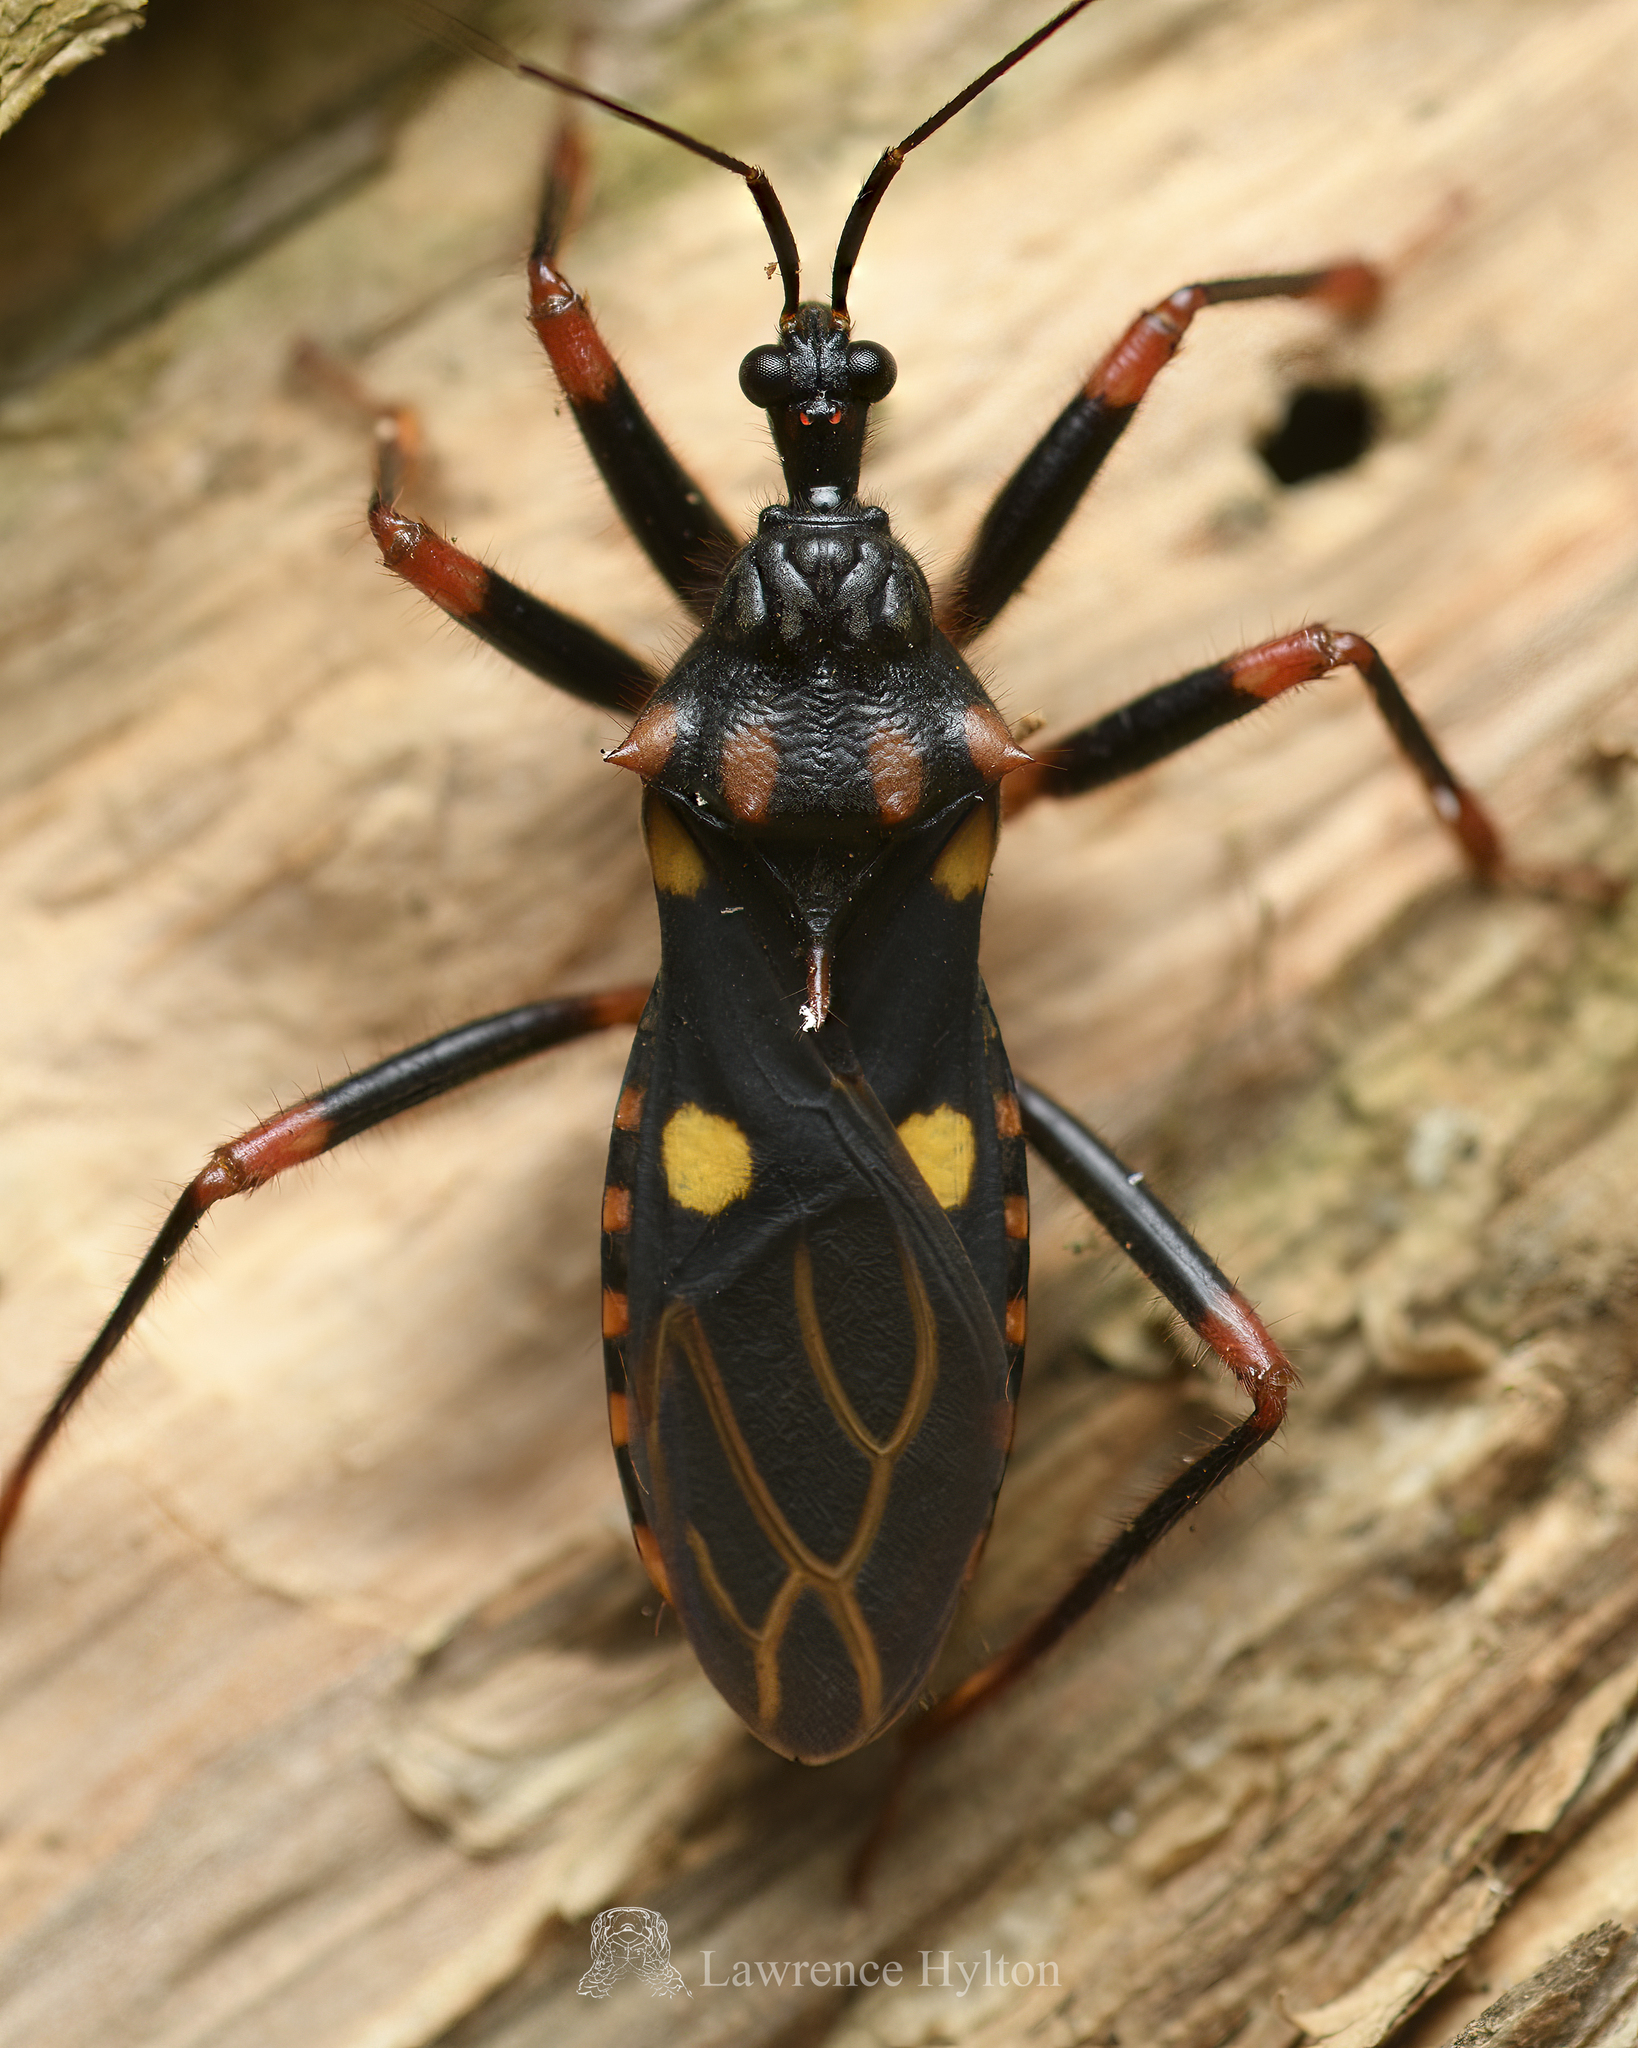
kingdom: Animalia
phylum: Arthropoda
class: Insecta
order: Hemiptera
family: Reduviidae
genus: Acanthaspis
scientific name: Acanthaspis geniculata
